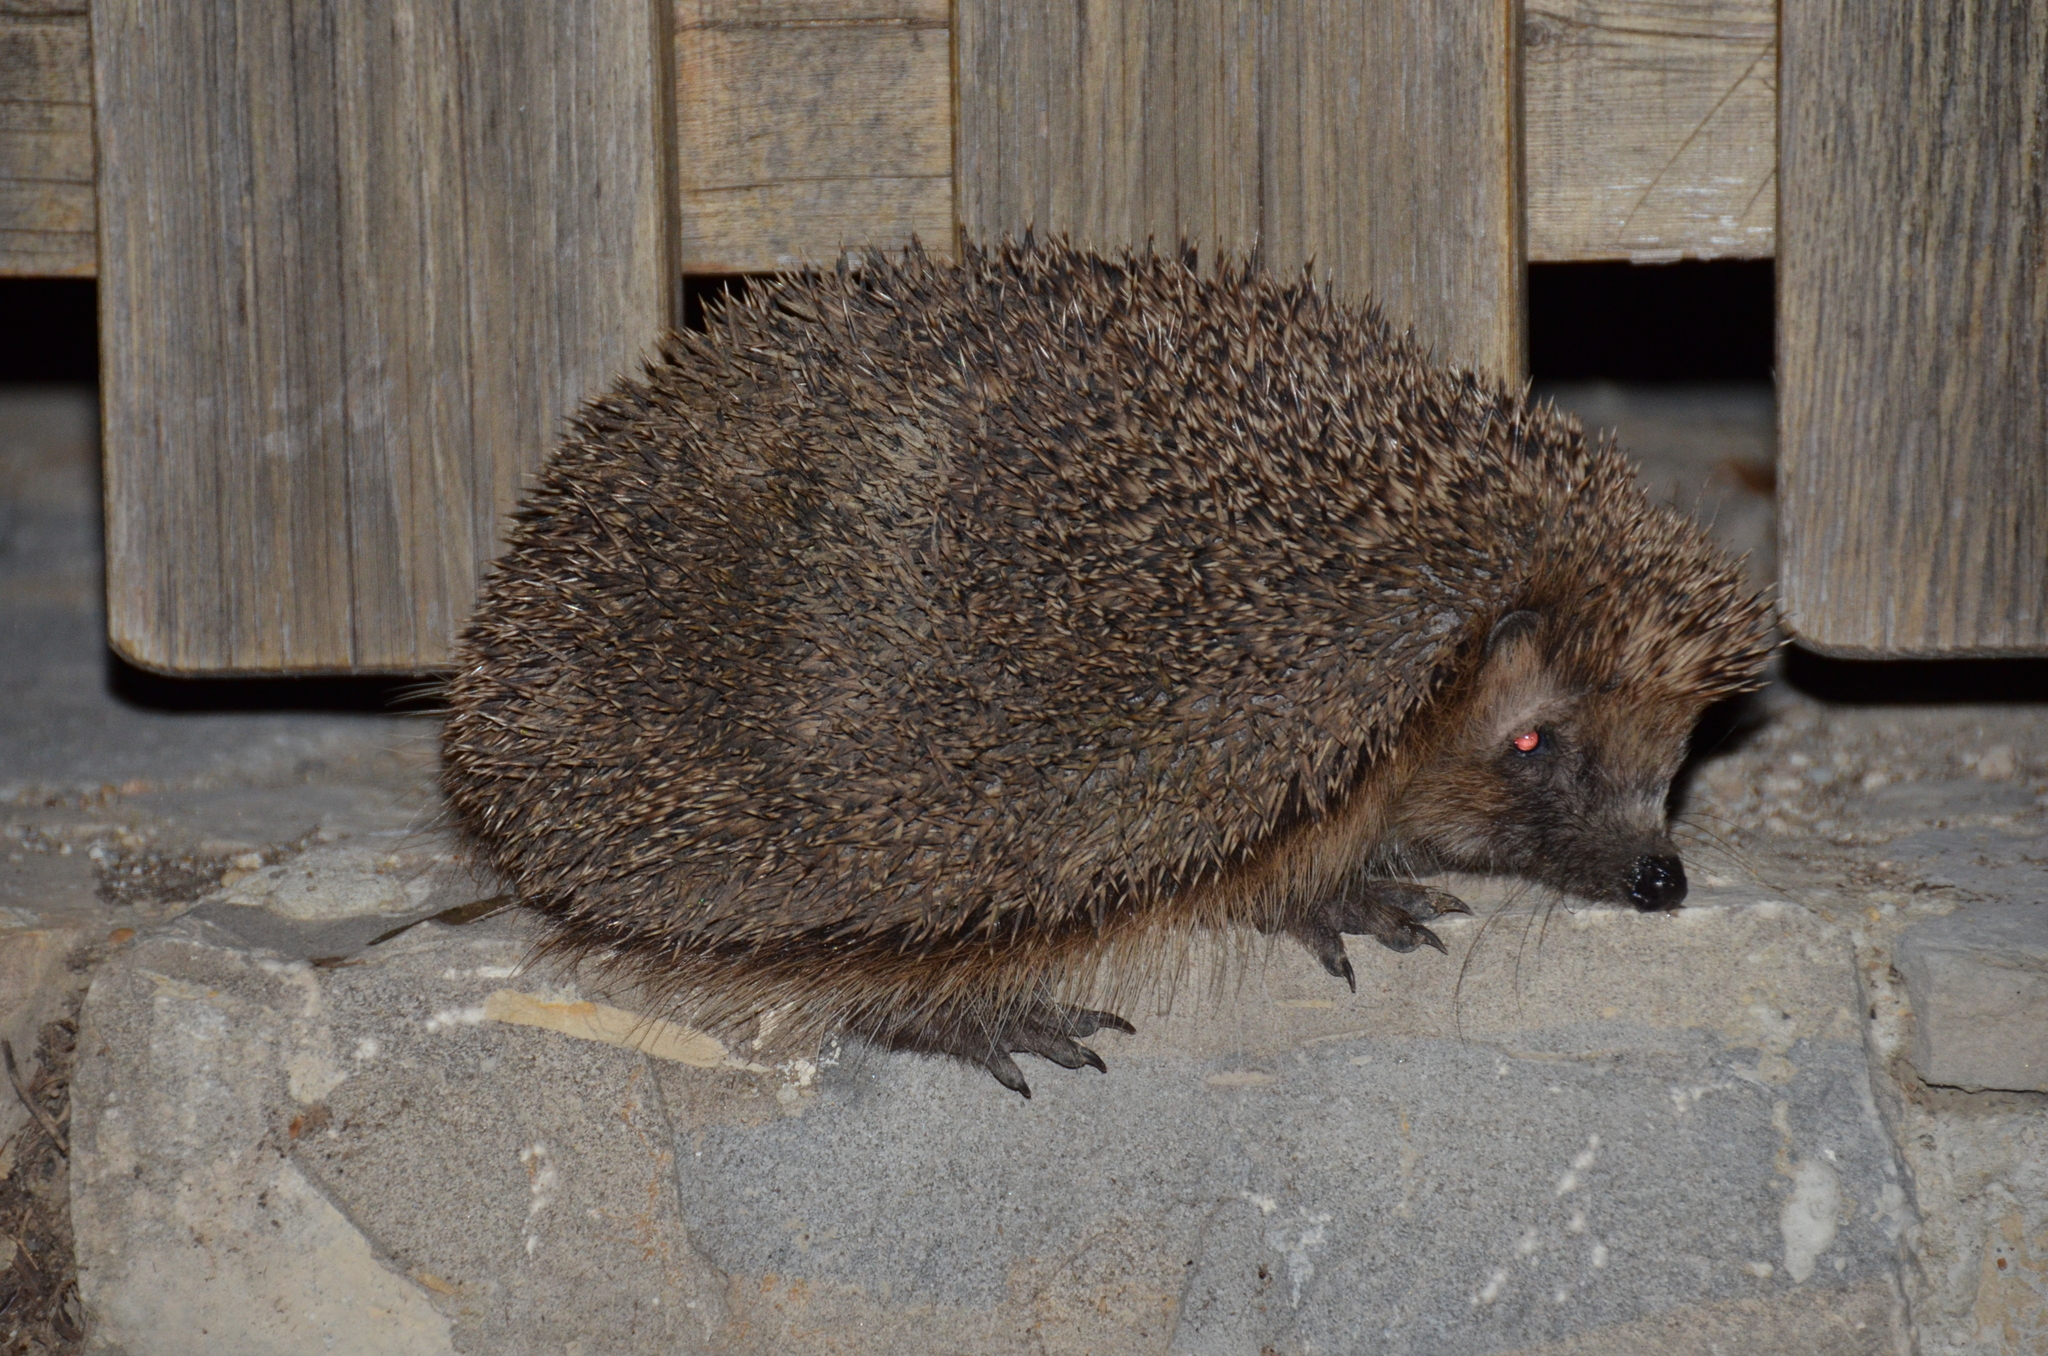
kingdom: Animalia
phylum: Chordata
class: Mammalia
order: Erinaceomorpha
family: Erinaceidae
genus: Erinaceus
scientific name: Erinaceus europaeus
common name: West european hedgehog
